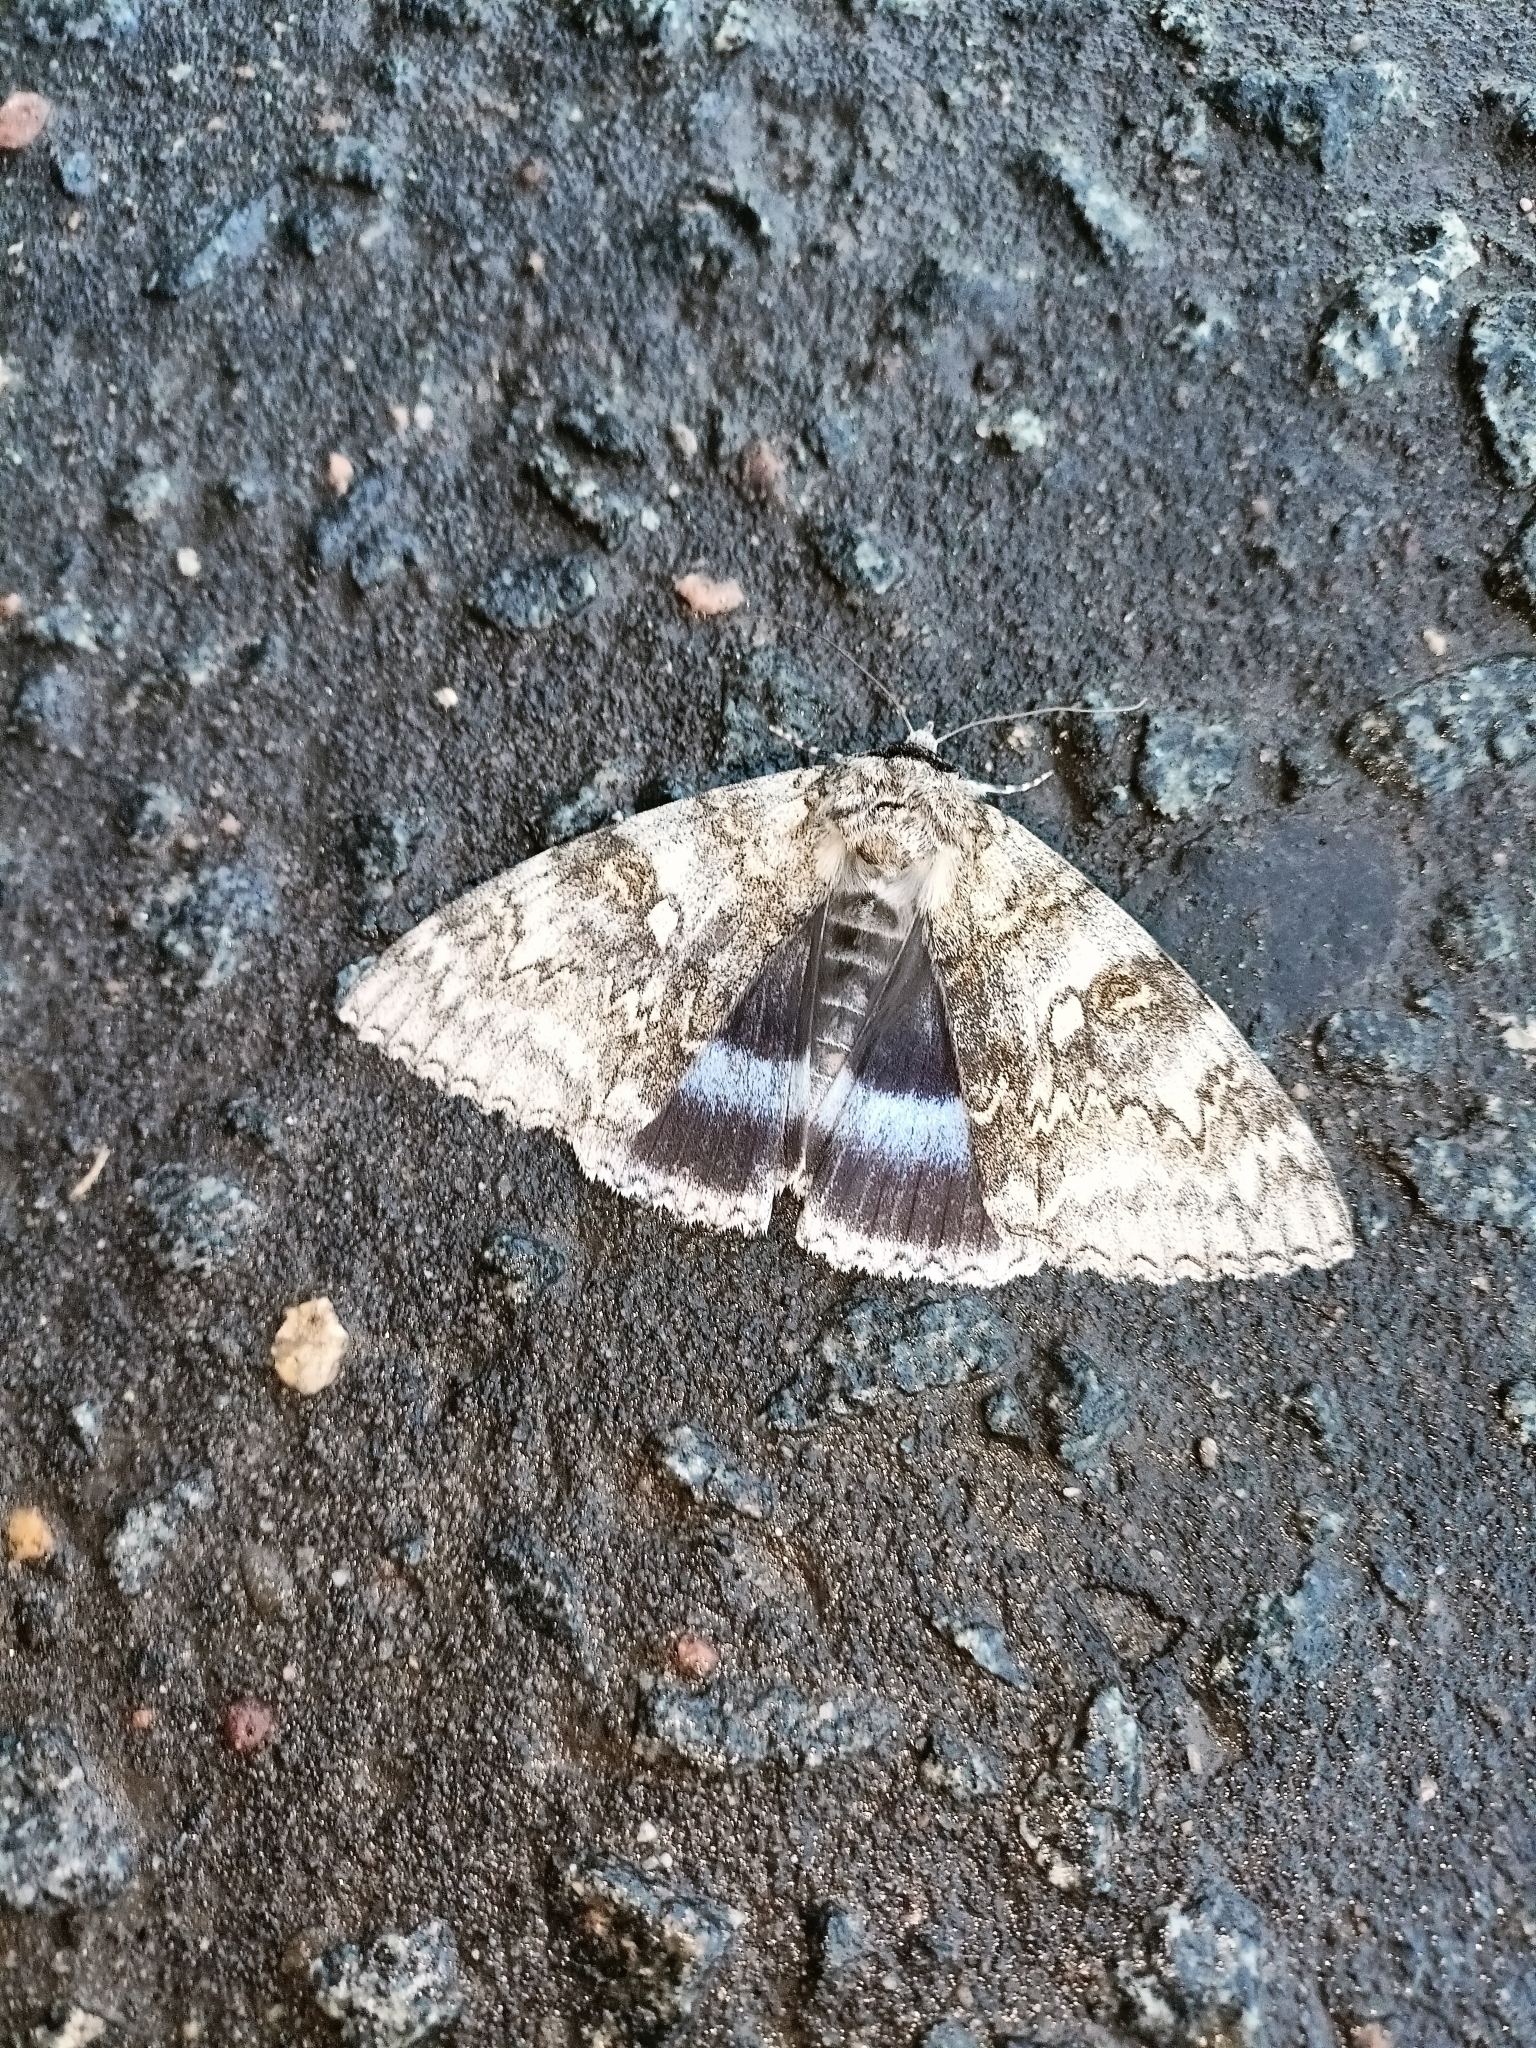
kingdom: Animalia
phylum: Arthropoda
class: Insecta
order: Lepidoptera
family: Erebidae
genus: Catocala
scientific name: Catocala fraxini
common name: Clifden nonpareil
